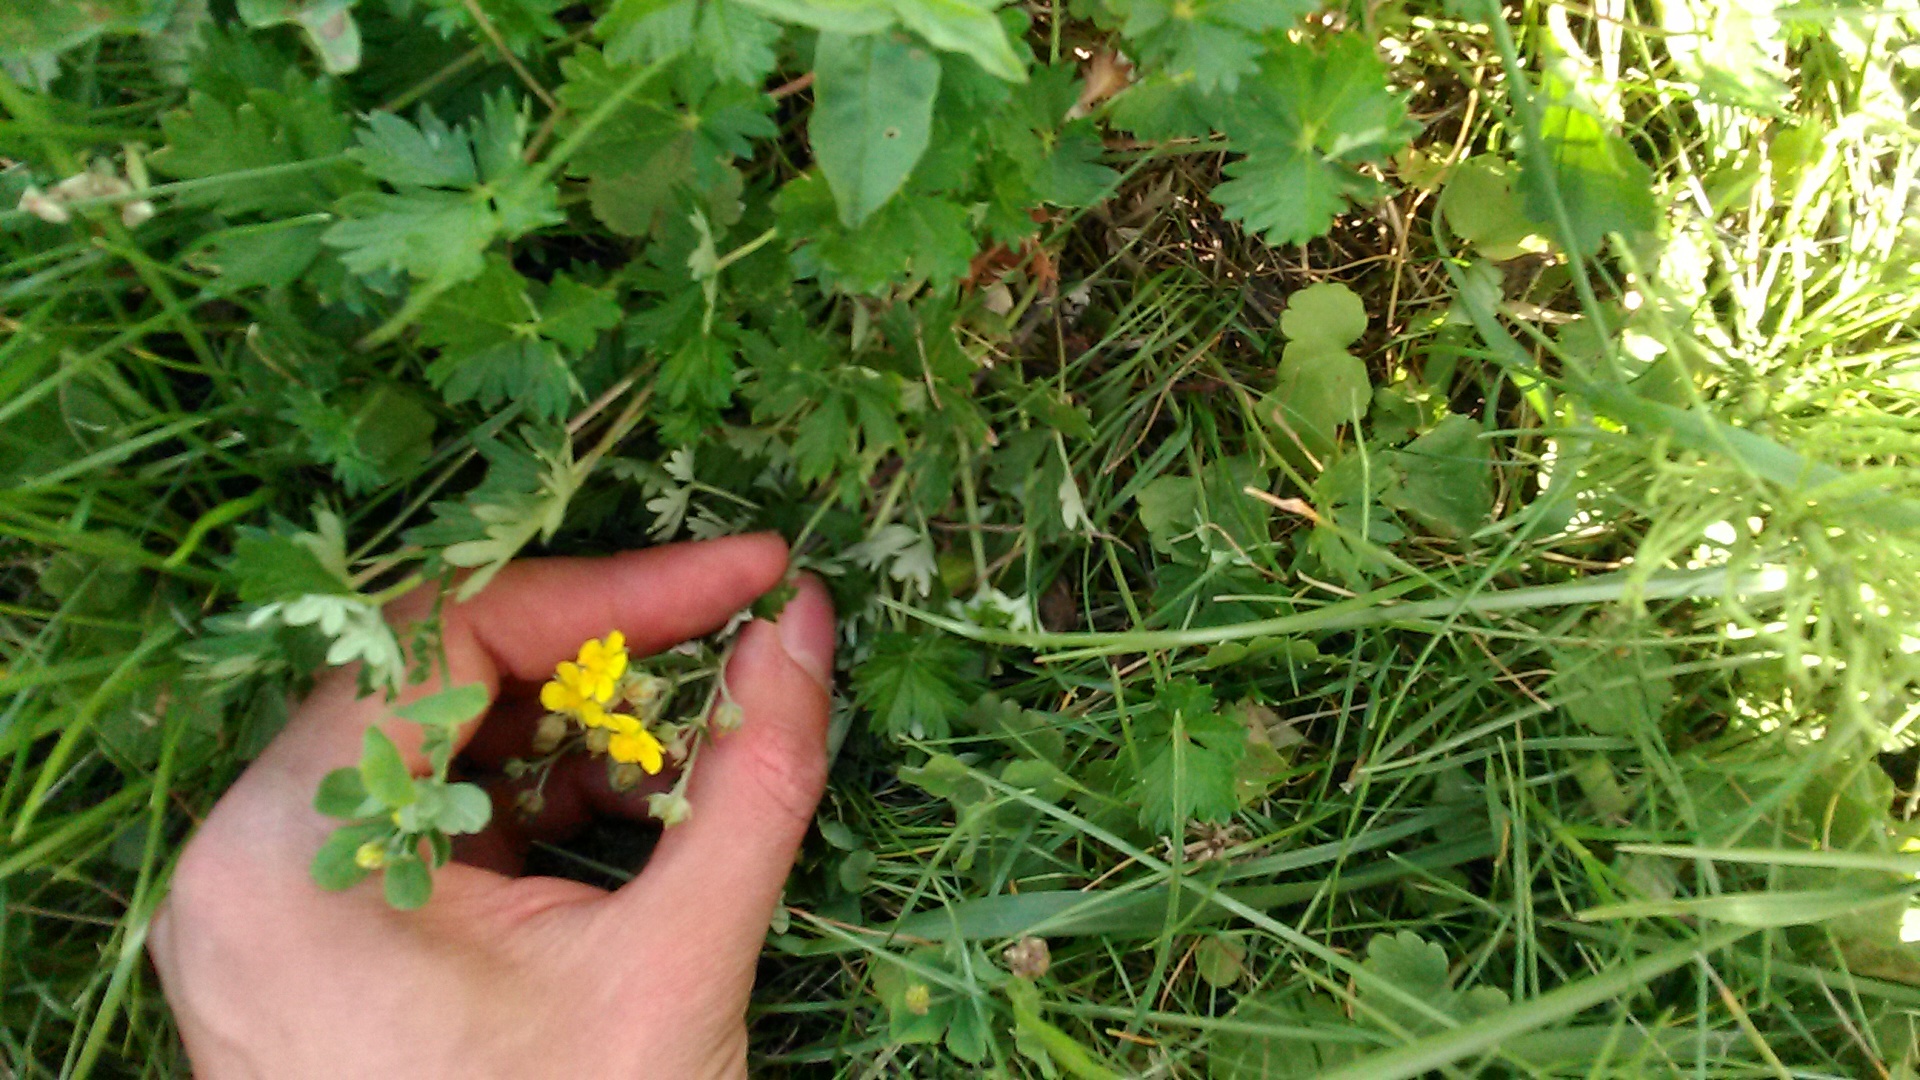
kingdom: Plantae
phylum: Tracheophyta
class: Magnoliopsida
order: Rosales
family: Rosaceae
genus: Potentilla
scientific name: Potentilla argentea
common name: Hoary cinquefoil
